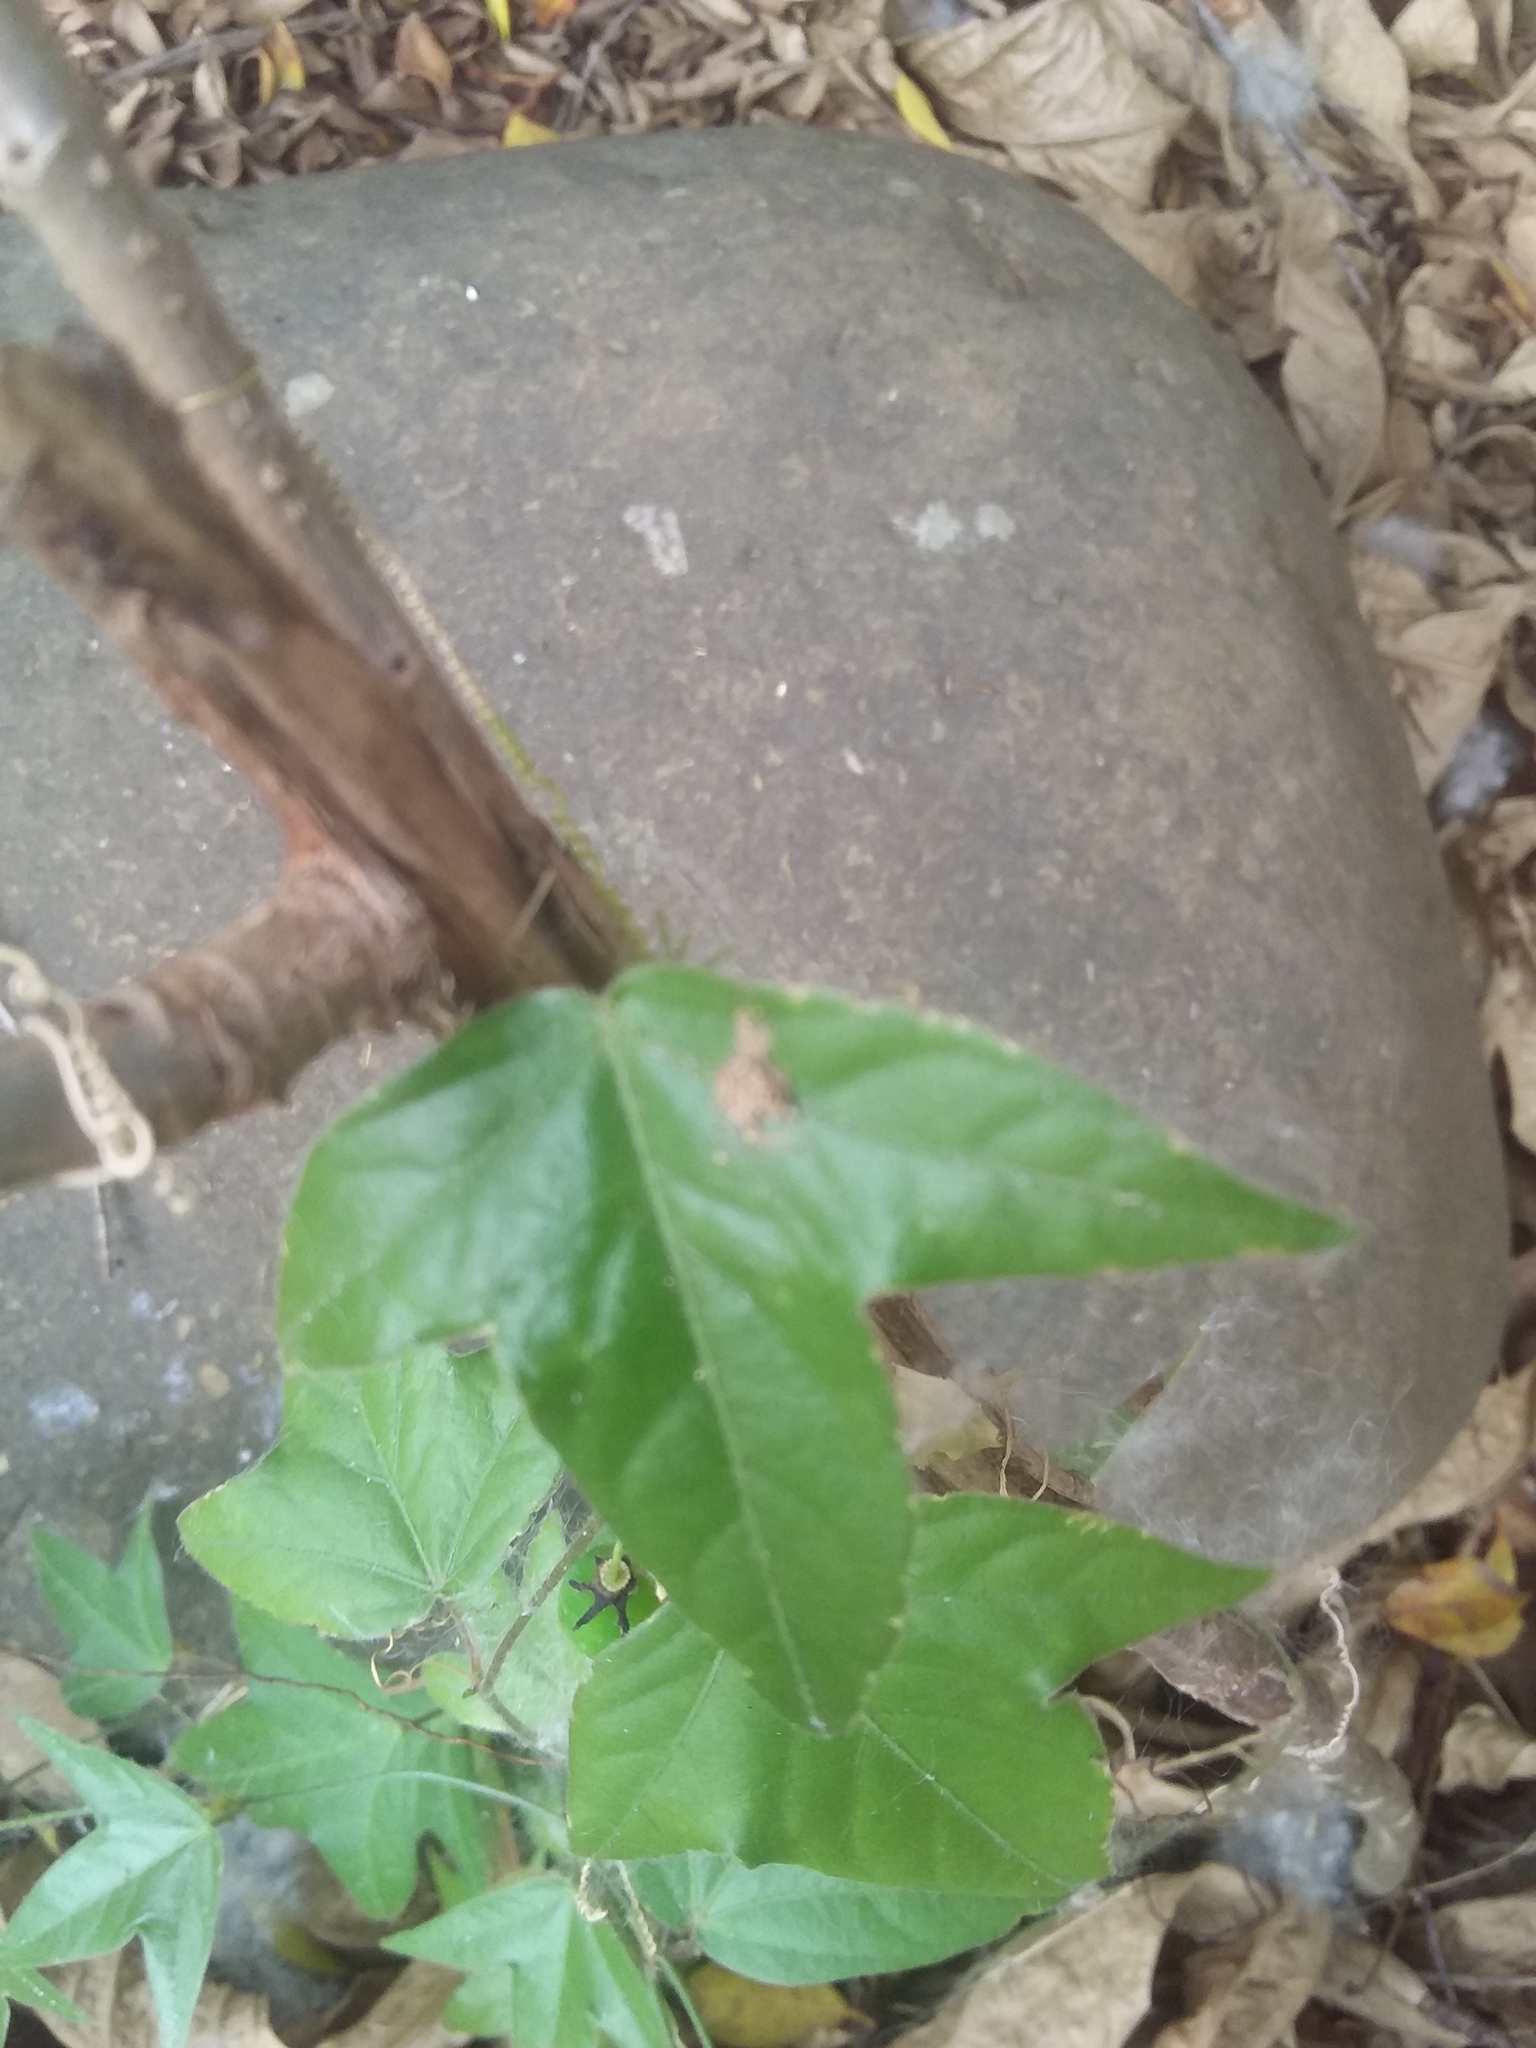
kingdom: Plantae
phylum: Tracheophyta
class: Magnoliopsida
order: Malpighiales
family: Passifloraceae
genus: Passiflora
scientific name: Passiflora suberosa
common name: Wild passionfruit
